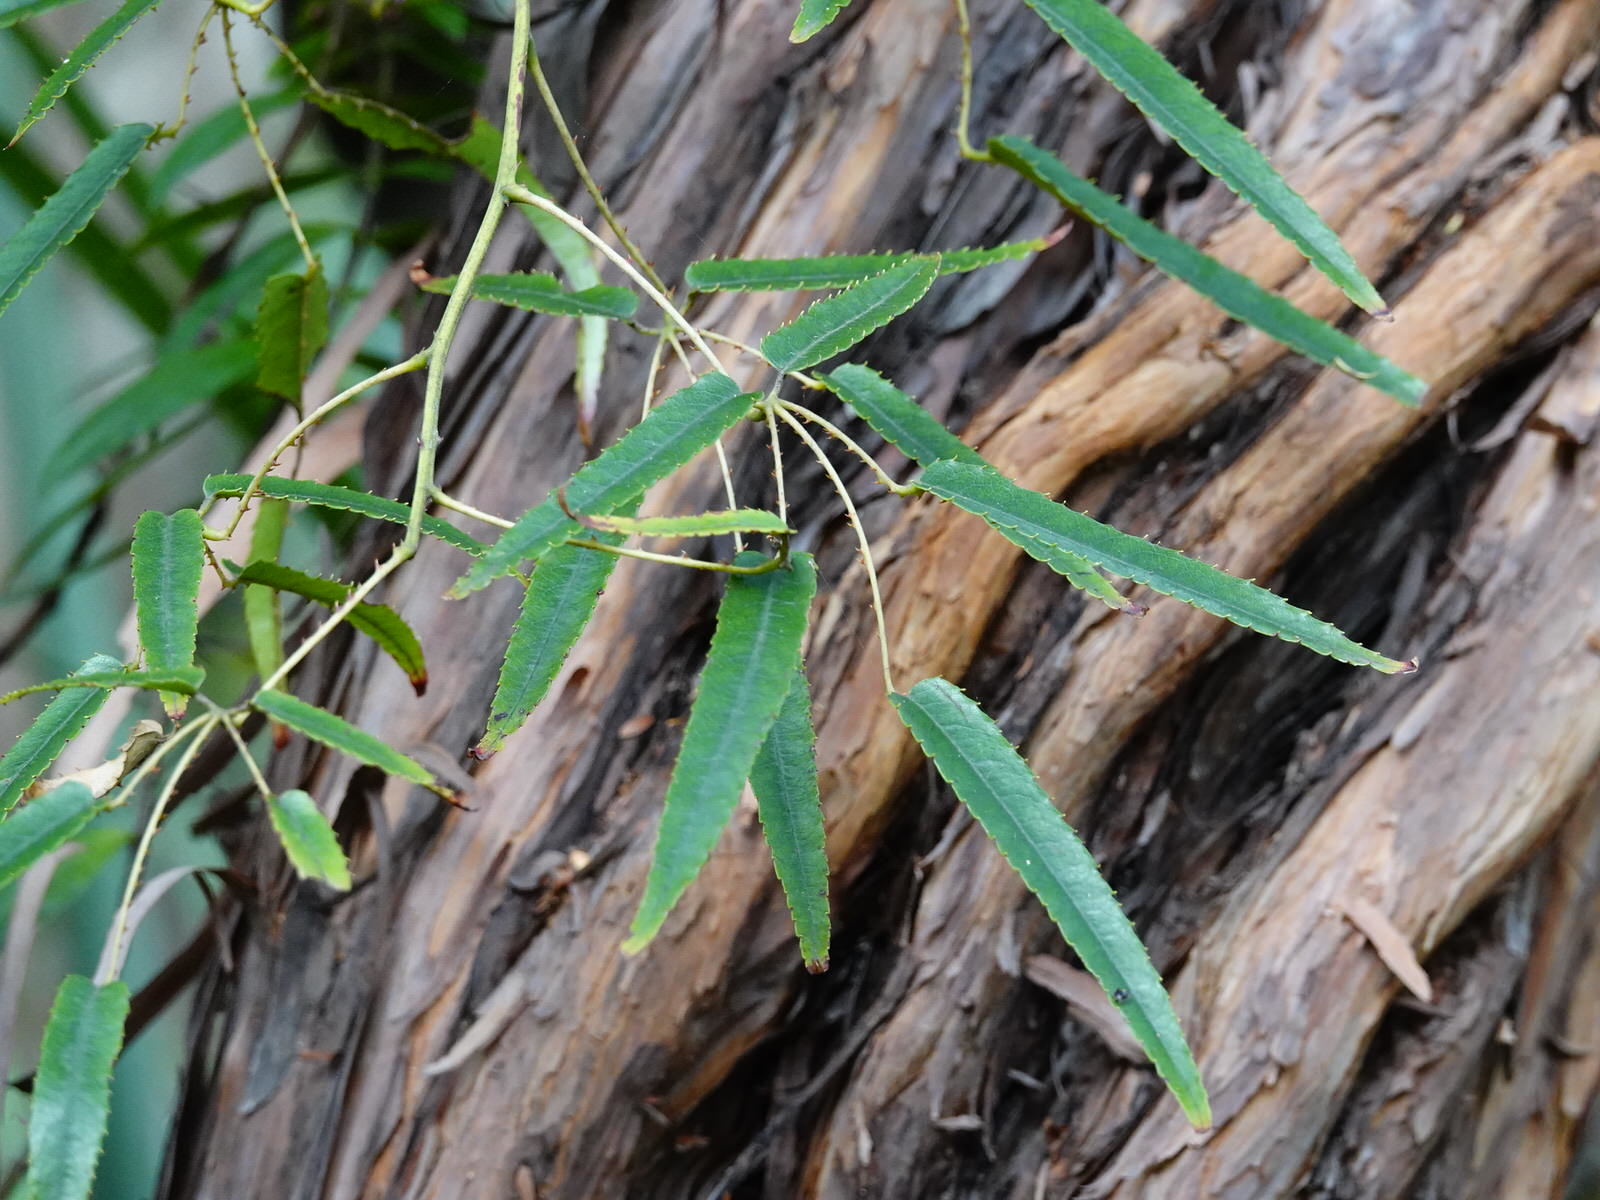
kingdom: Plantae
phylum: Tracheophyta
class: Magnoliopsida
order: Rosales
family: Rosaceae
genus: Rubus
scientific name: Rubus cissoides
